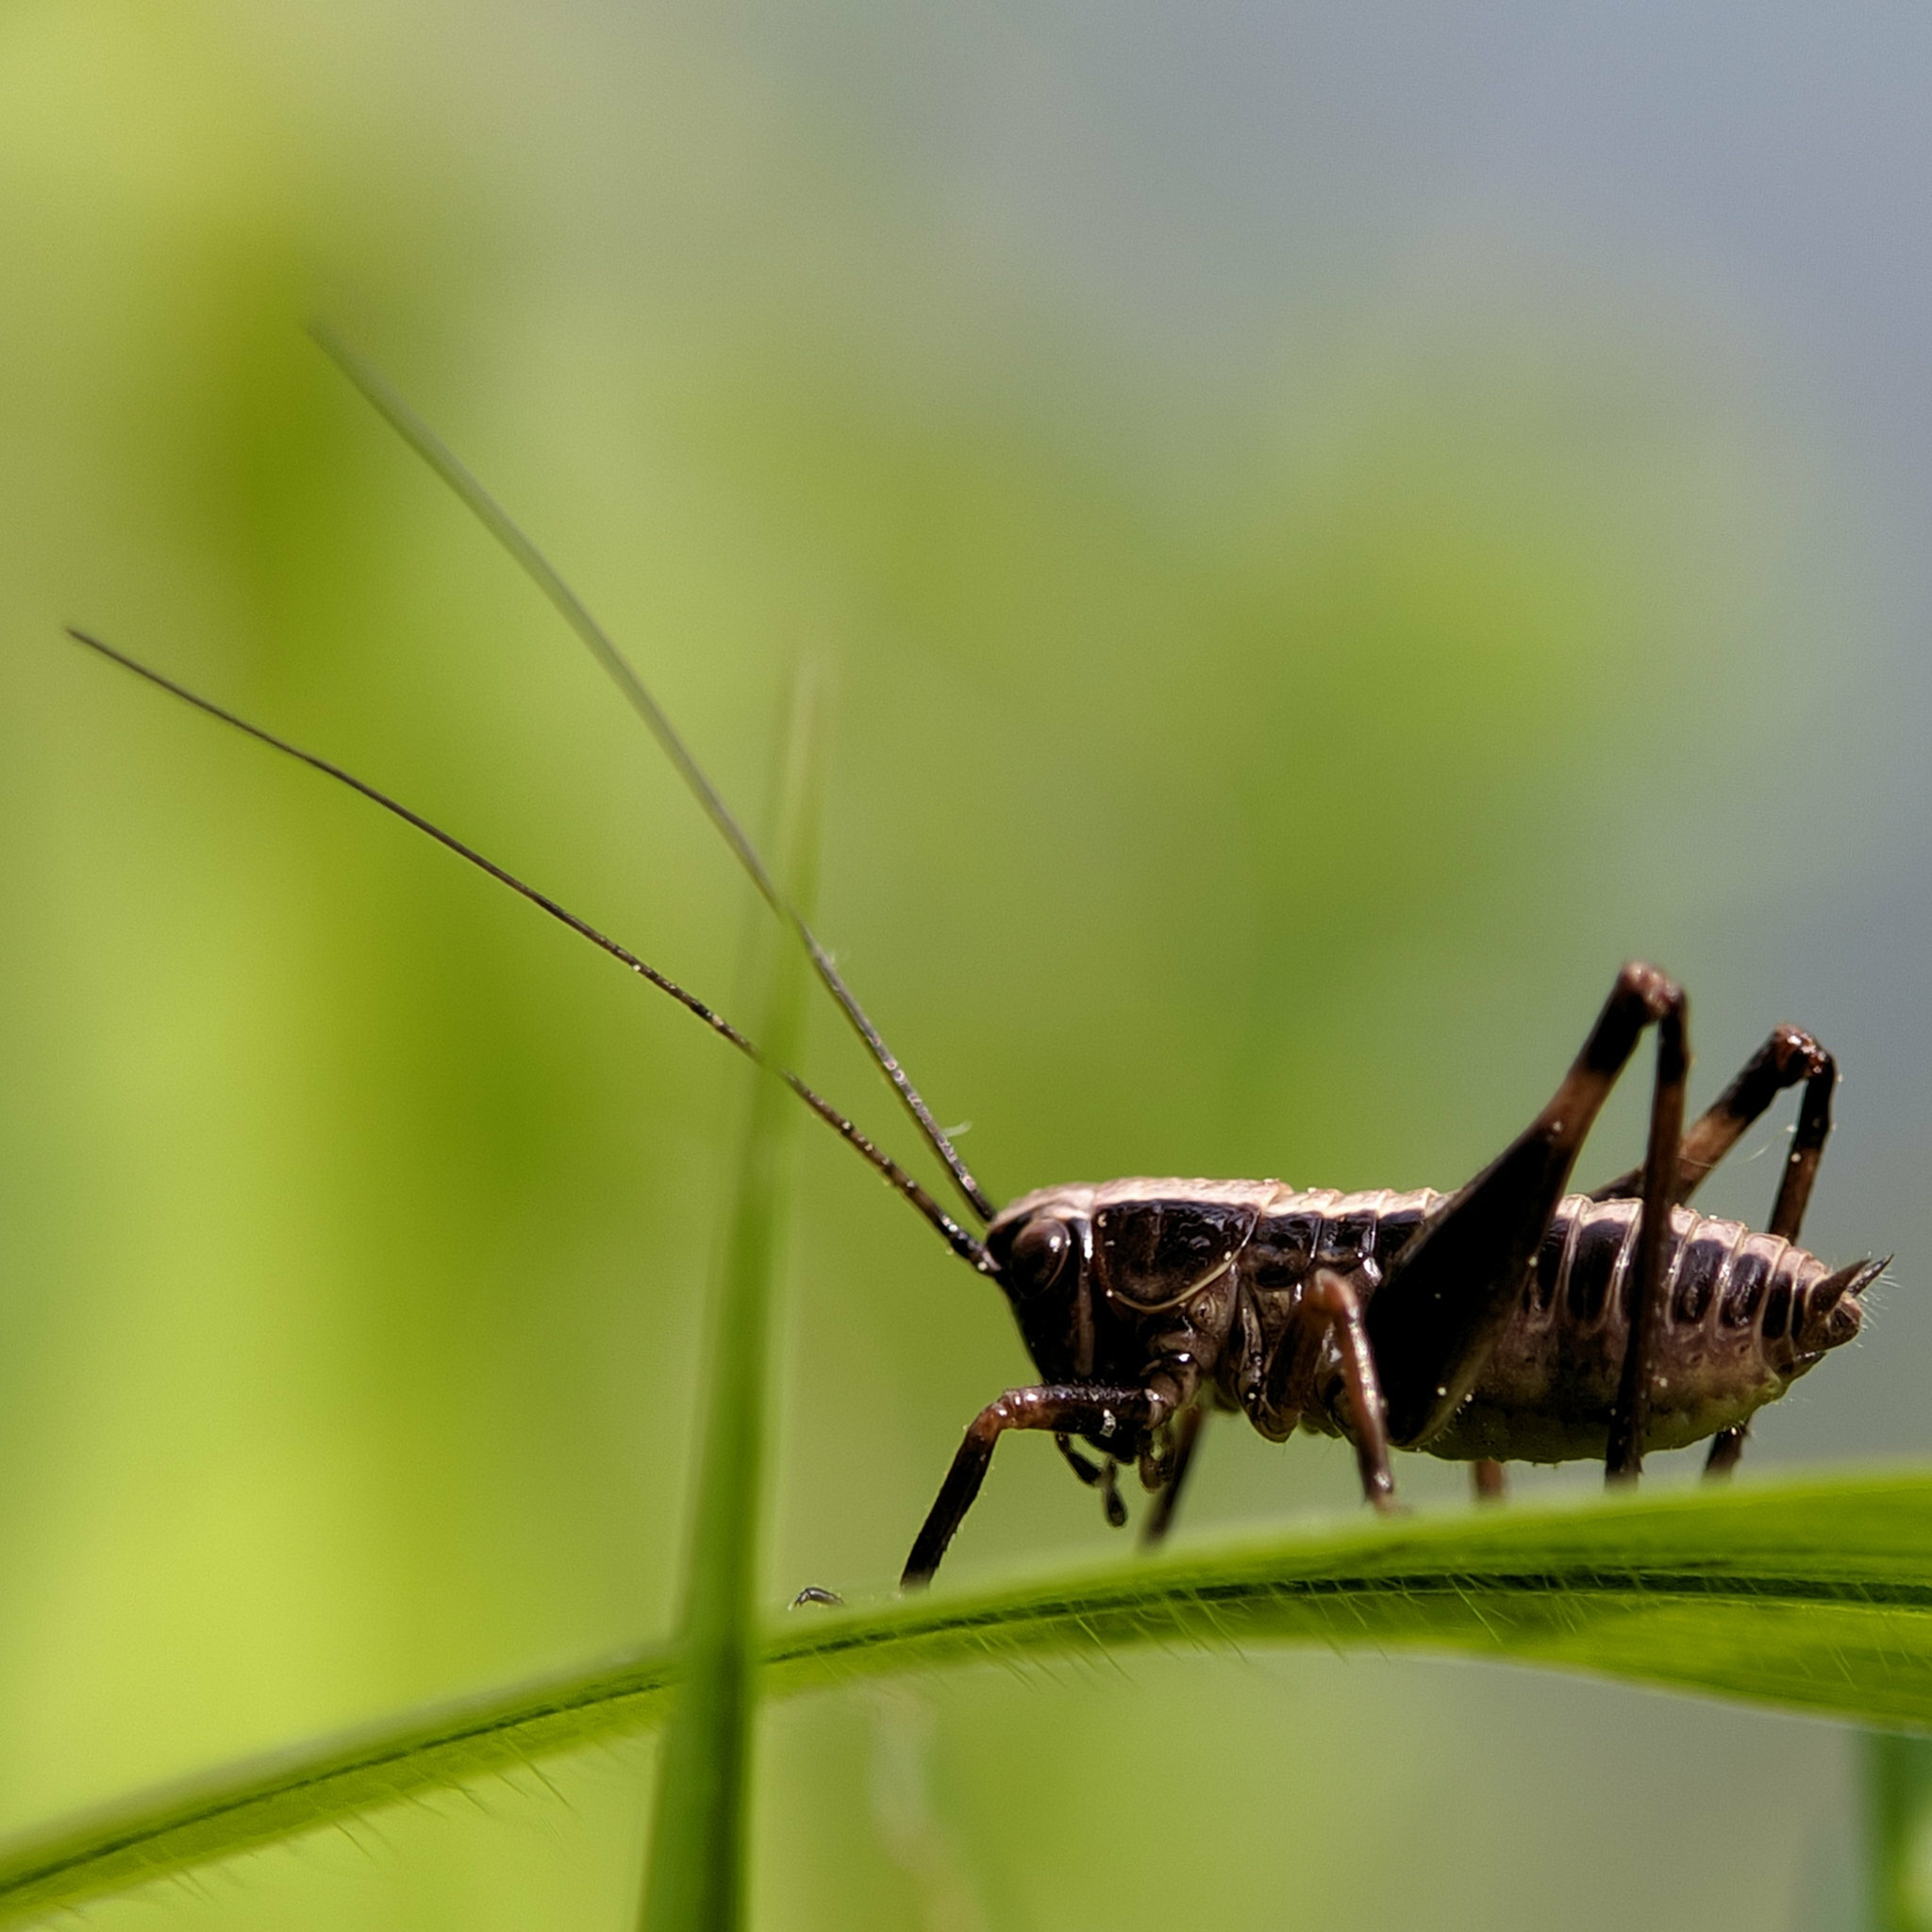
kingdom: Animalia
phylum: Arthropoda
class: Insecta
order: Orthoptera
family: Tettigoniidae
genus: Pholidoptera
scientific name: Pholidoptera griseoaptera
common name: Dark bush-cricket
